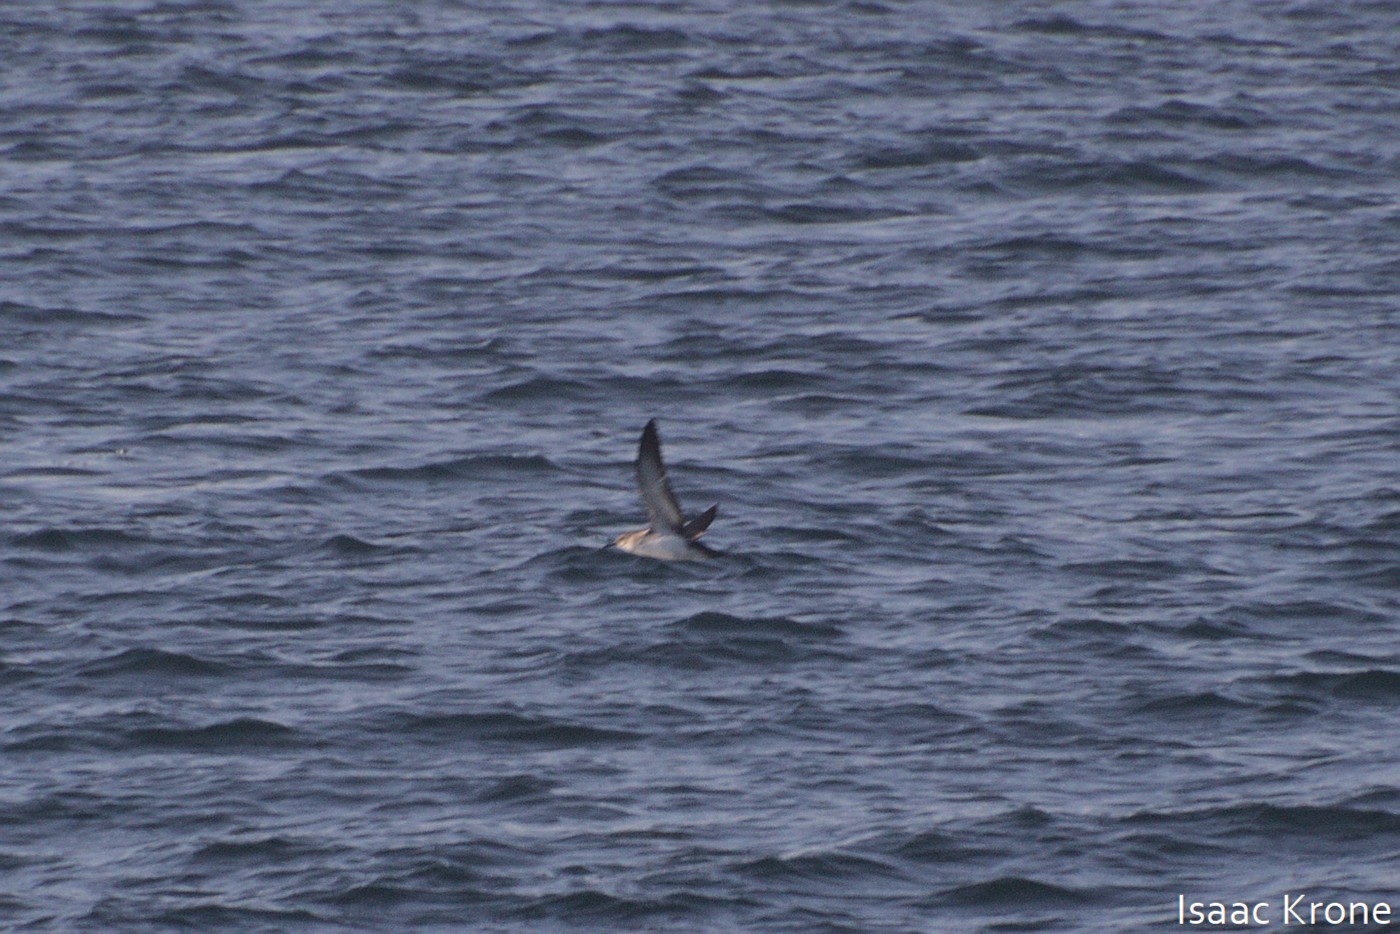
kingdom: Animalia
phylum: Chordata
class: Aves
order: Procellariiformes
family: Procellariidae
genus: Puffinus
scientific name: Puffinus opisthomelas
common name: Black-vented shearwater
